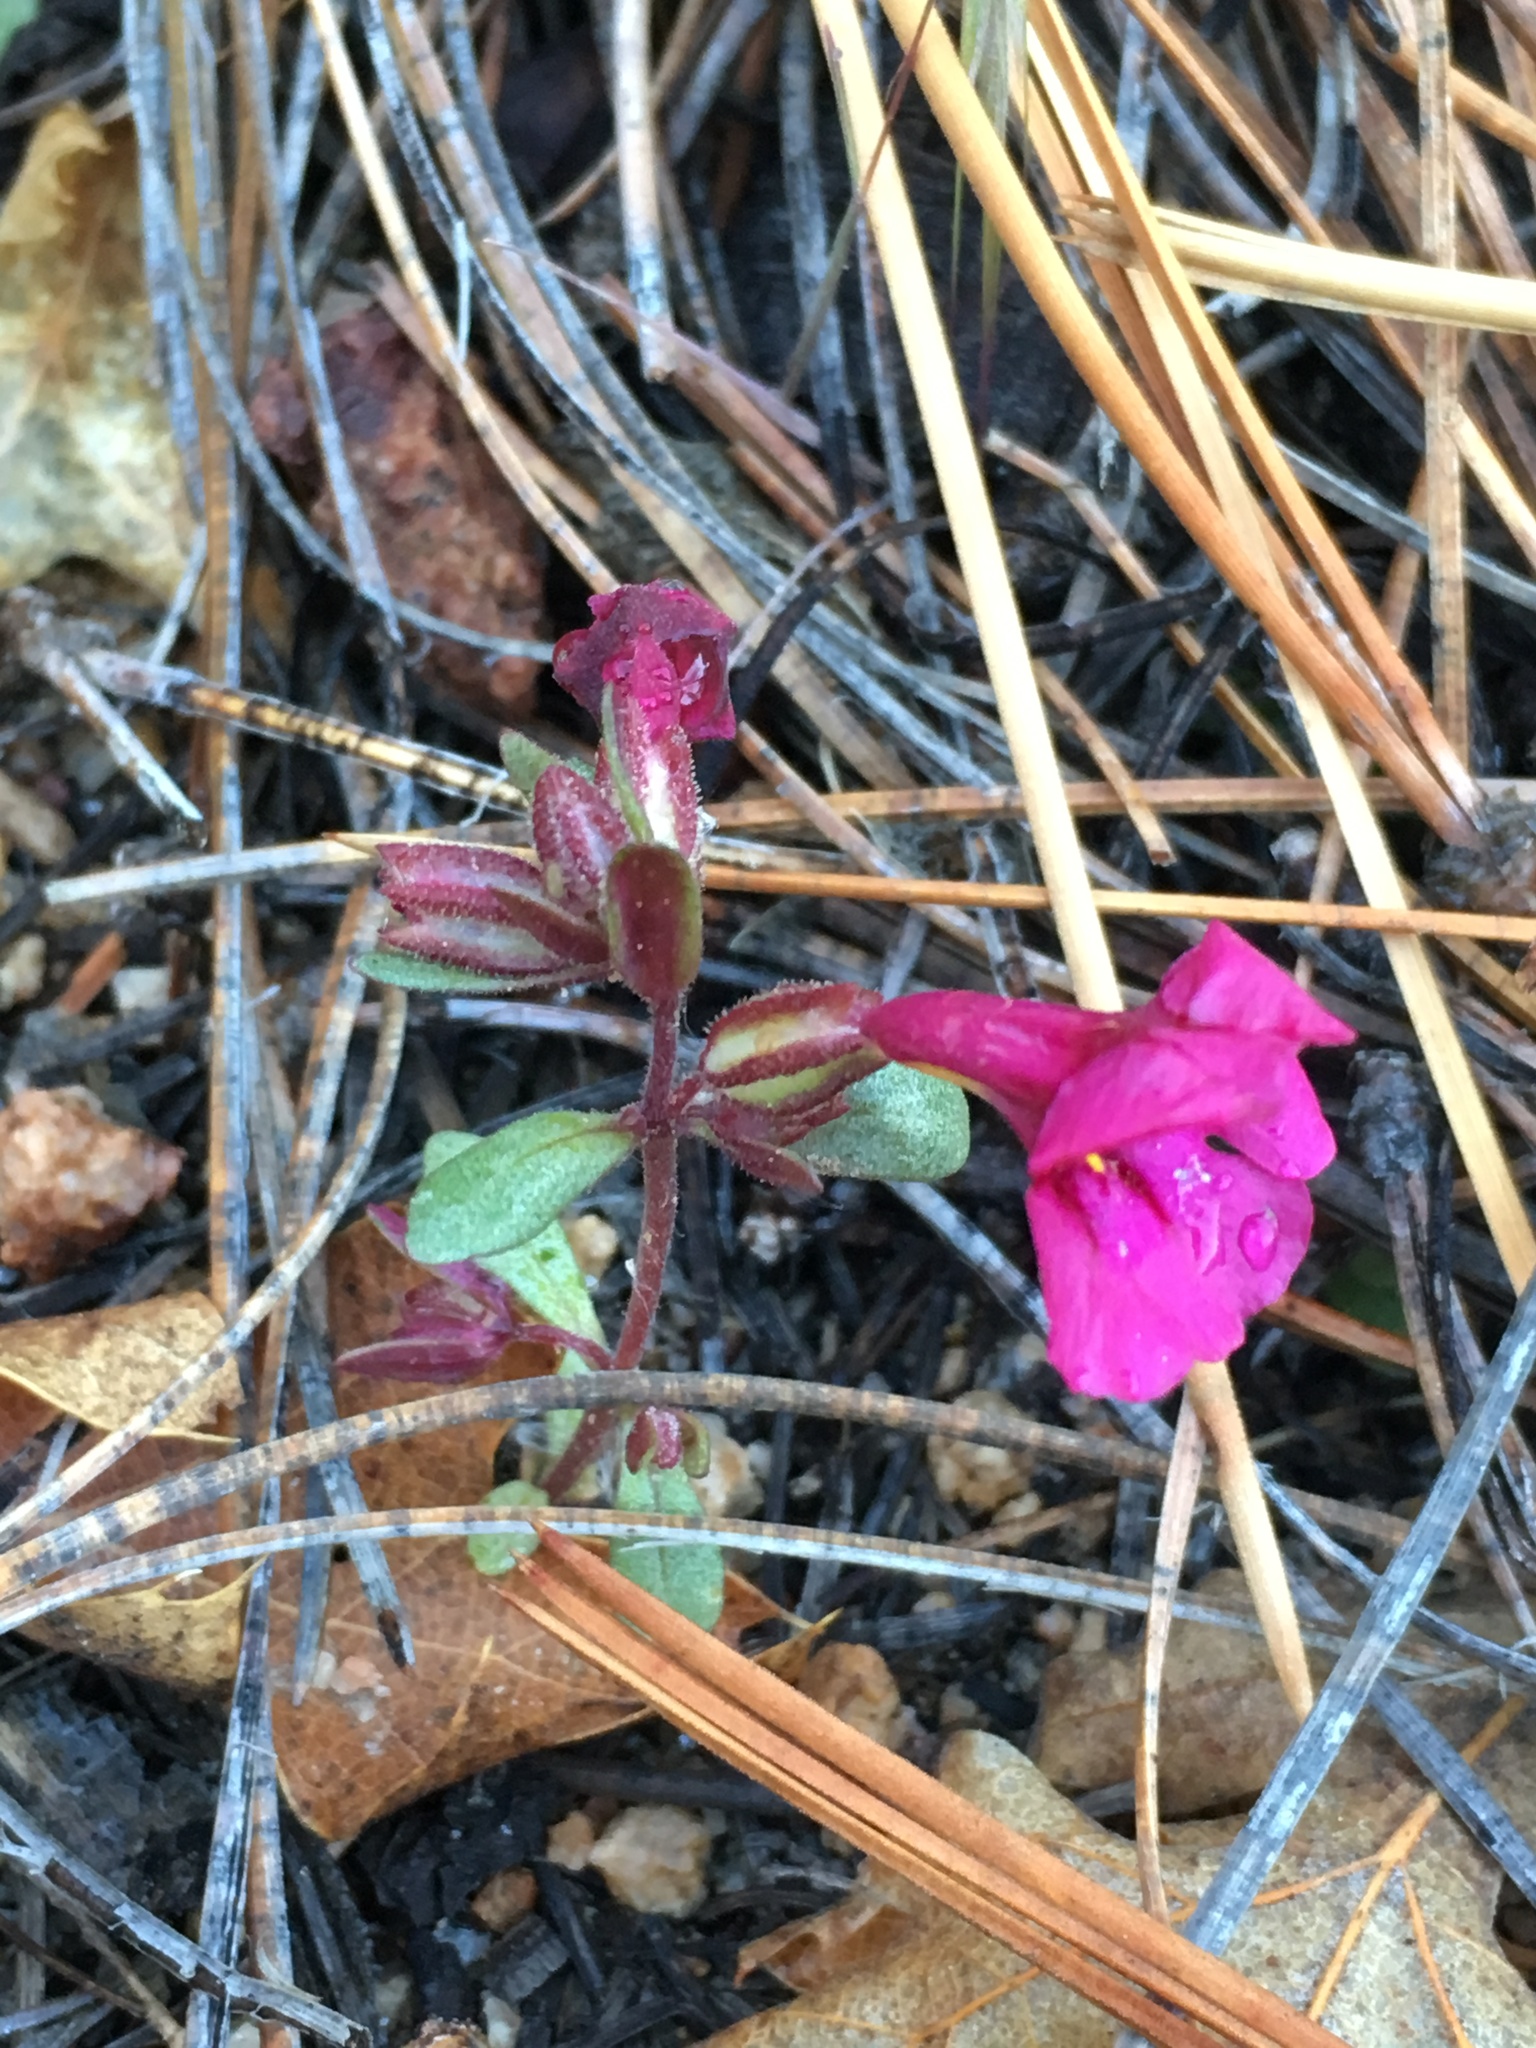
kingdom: Plantae
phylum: Tracheophyta
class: Magnoliopsida
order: Lamiales
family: Phrymaceae
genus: Diplacus
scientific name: Diplacus fremontii
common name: Fremont's monkey-flower
